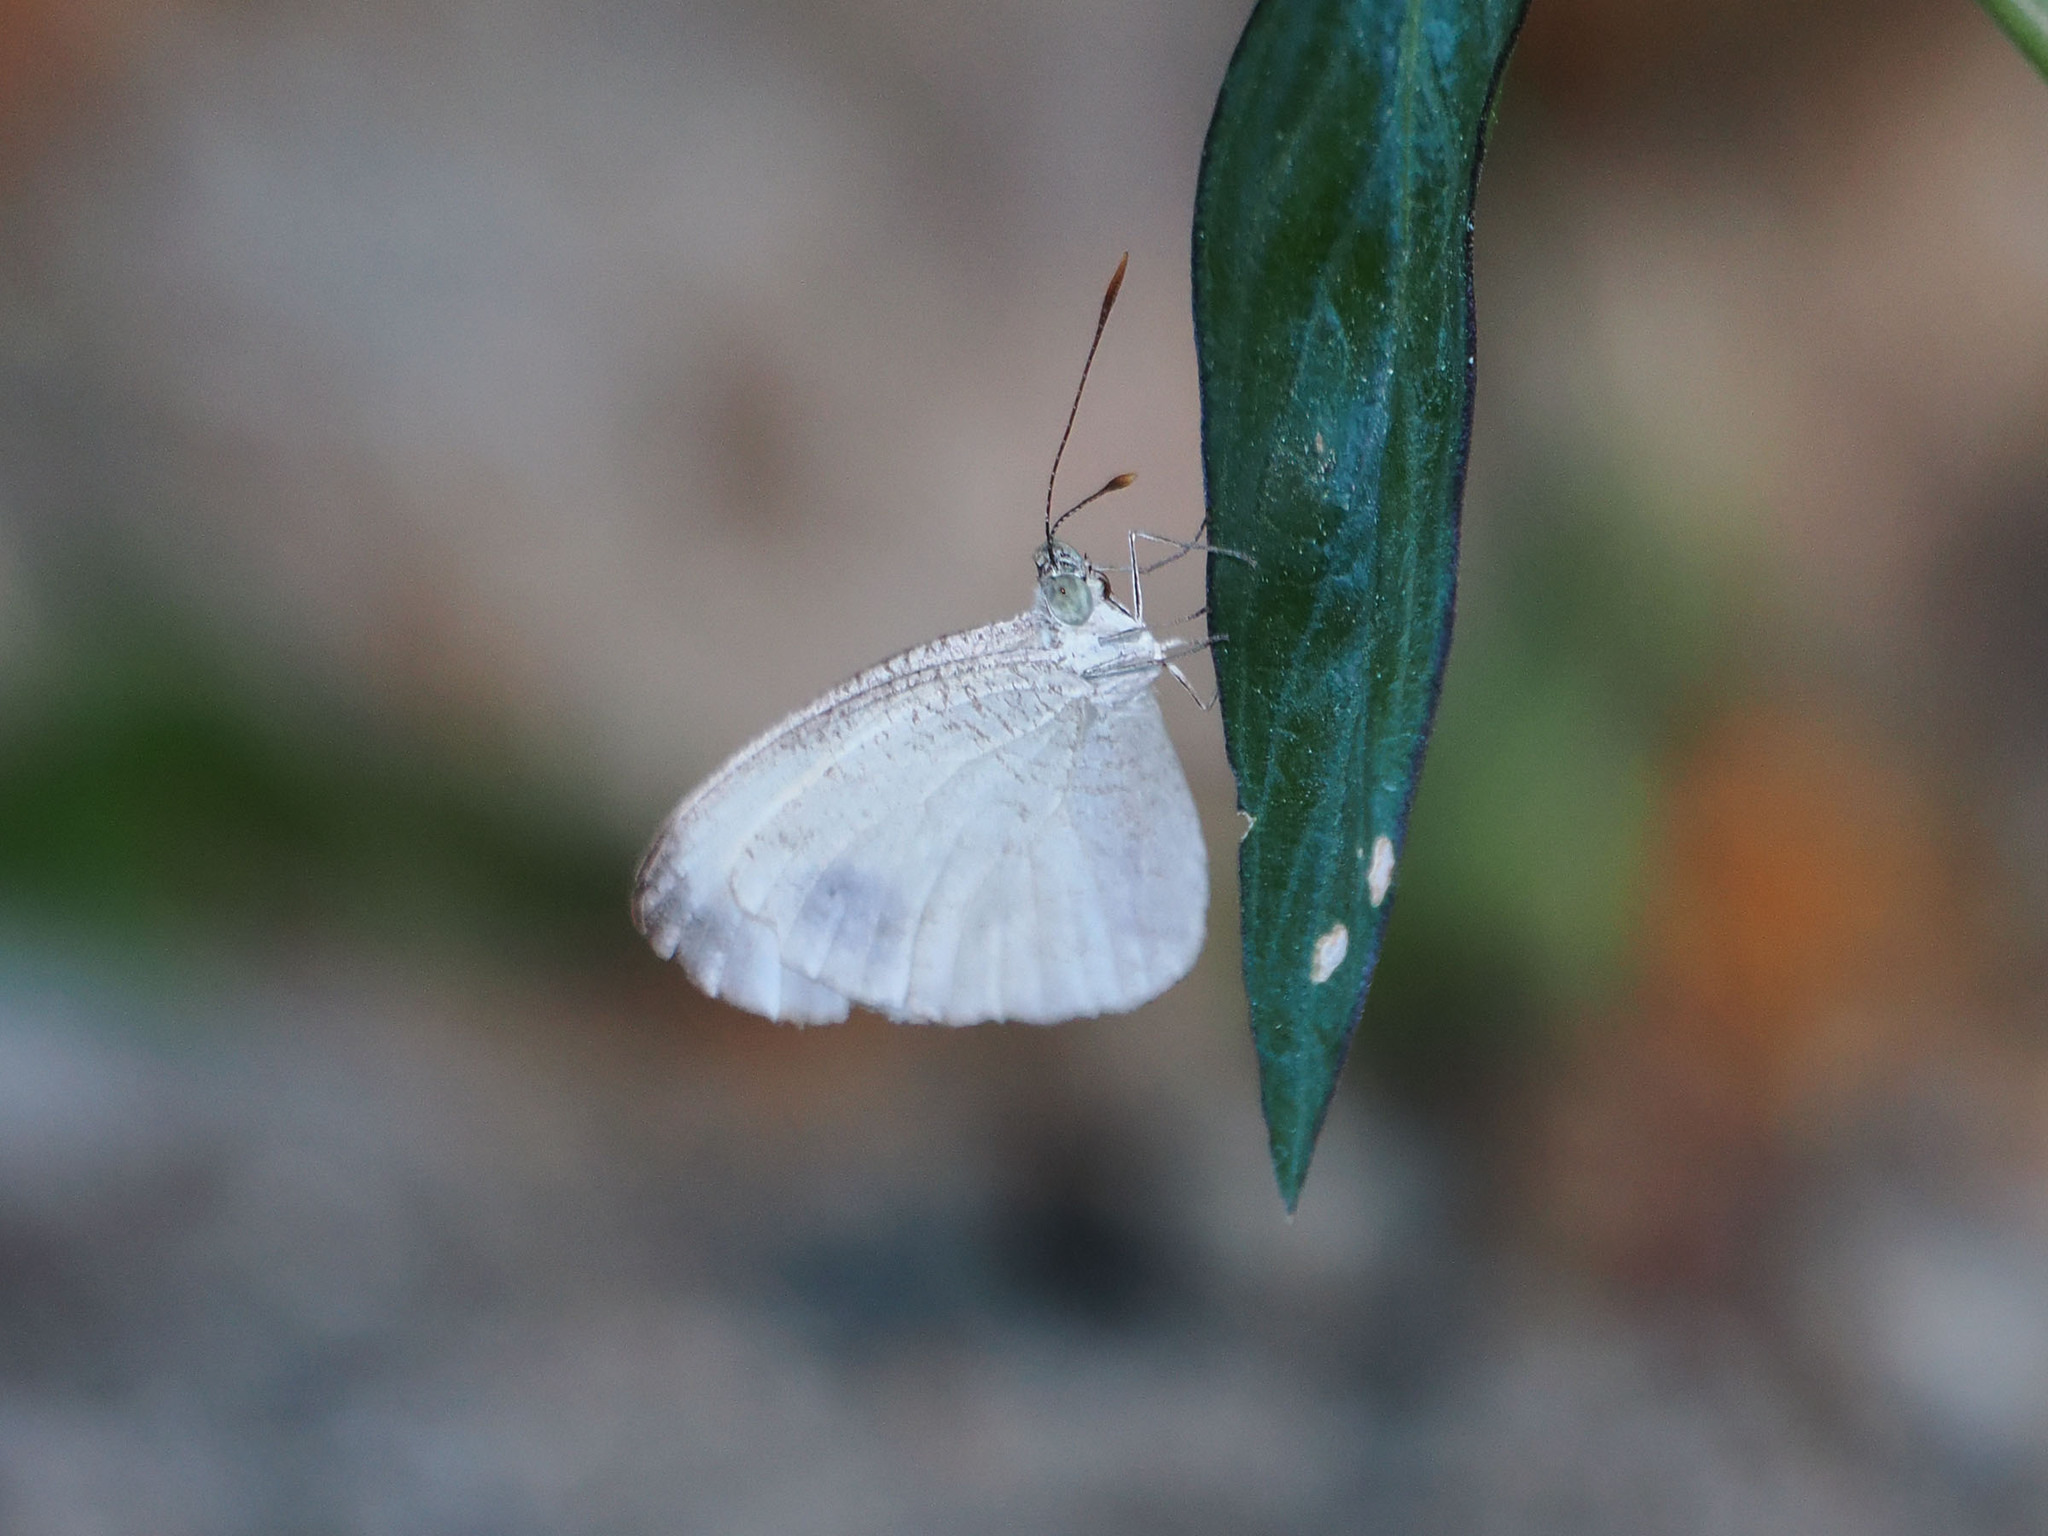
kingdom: Animalia
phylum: Arthropoda
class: Insecta
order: Lepidoptera
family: Pieridae
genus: Leptosia
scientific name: Leptosia nina
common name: Psyche
